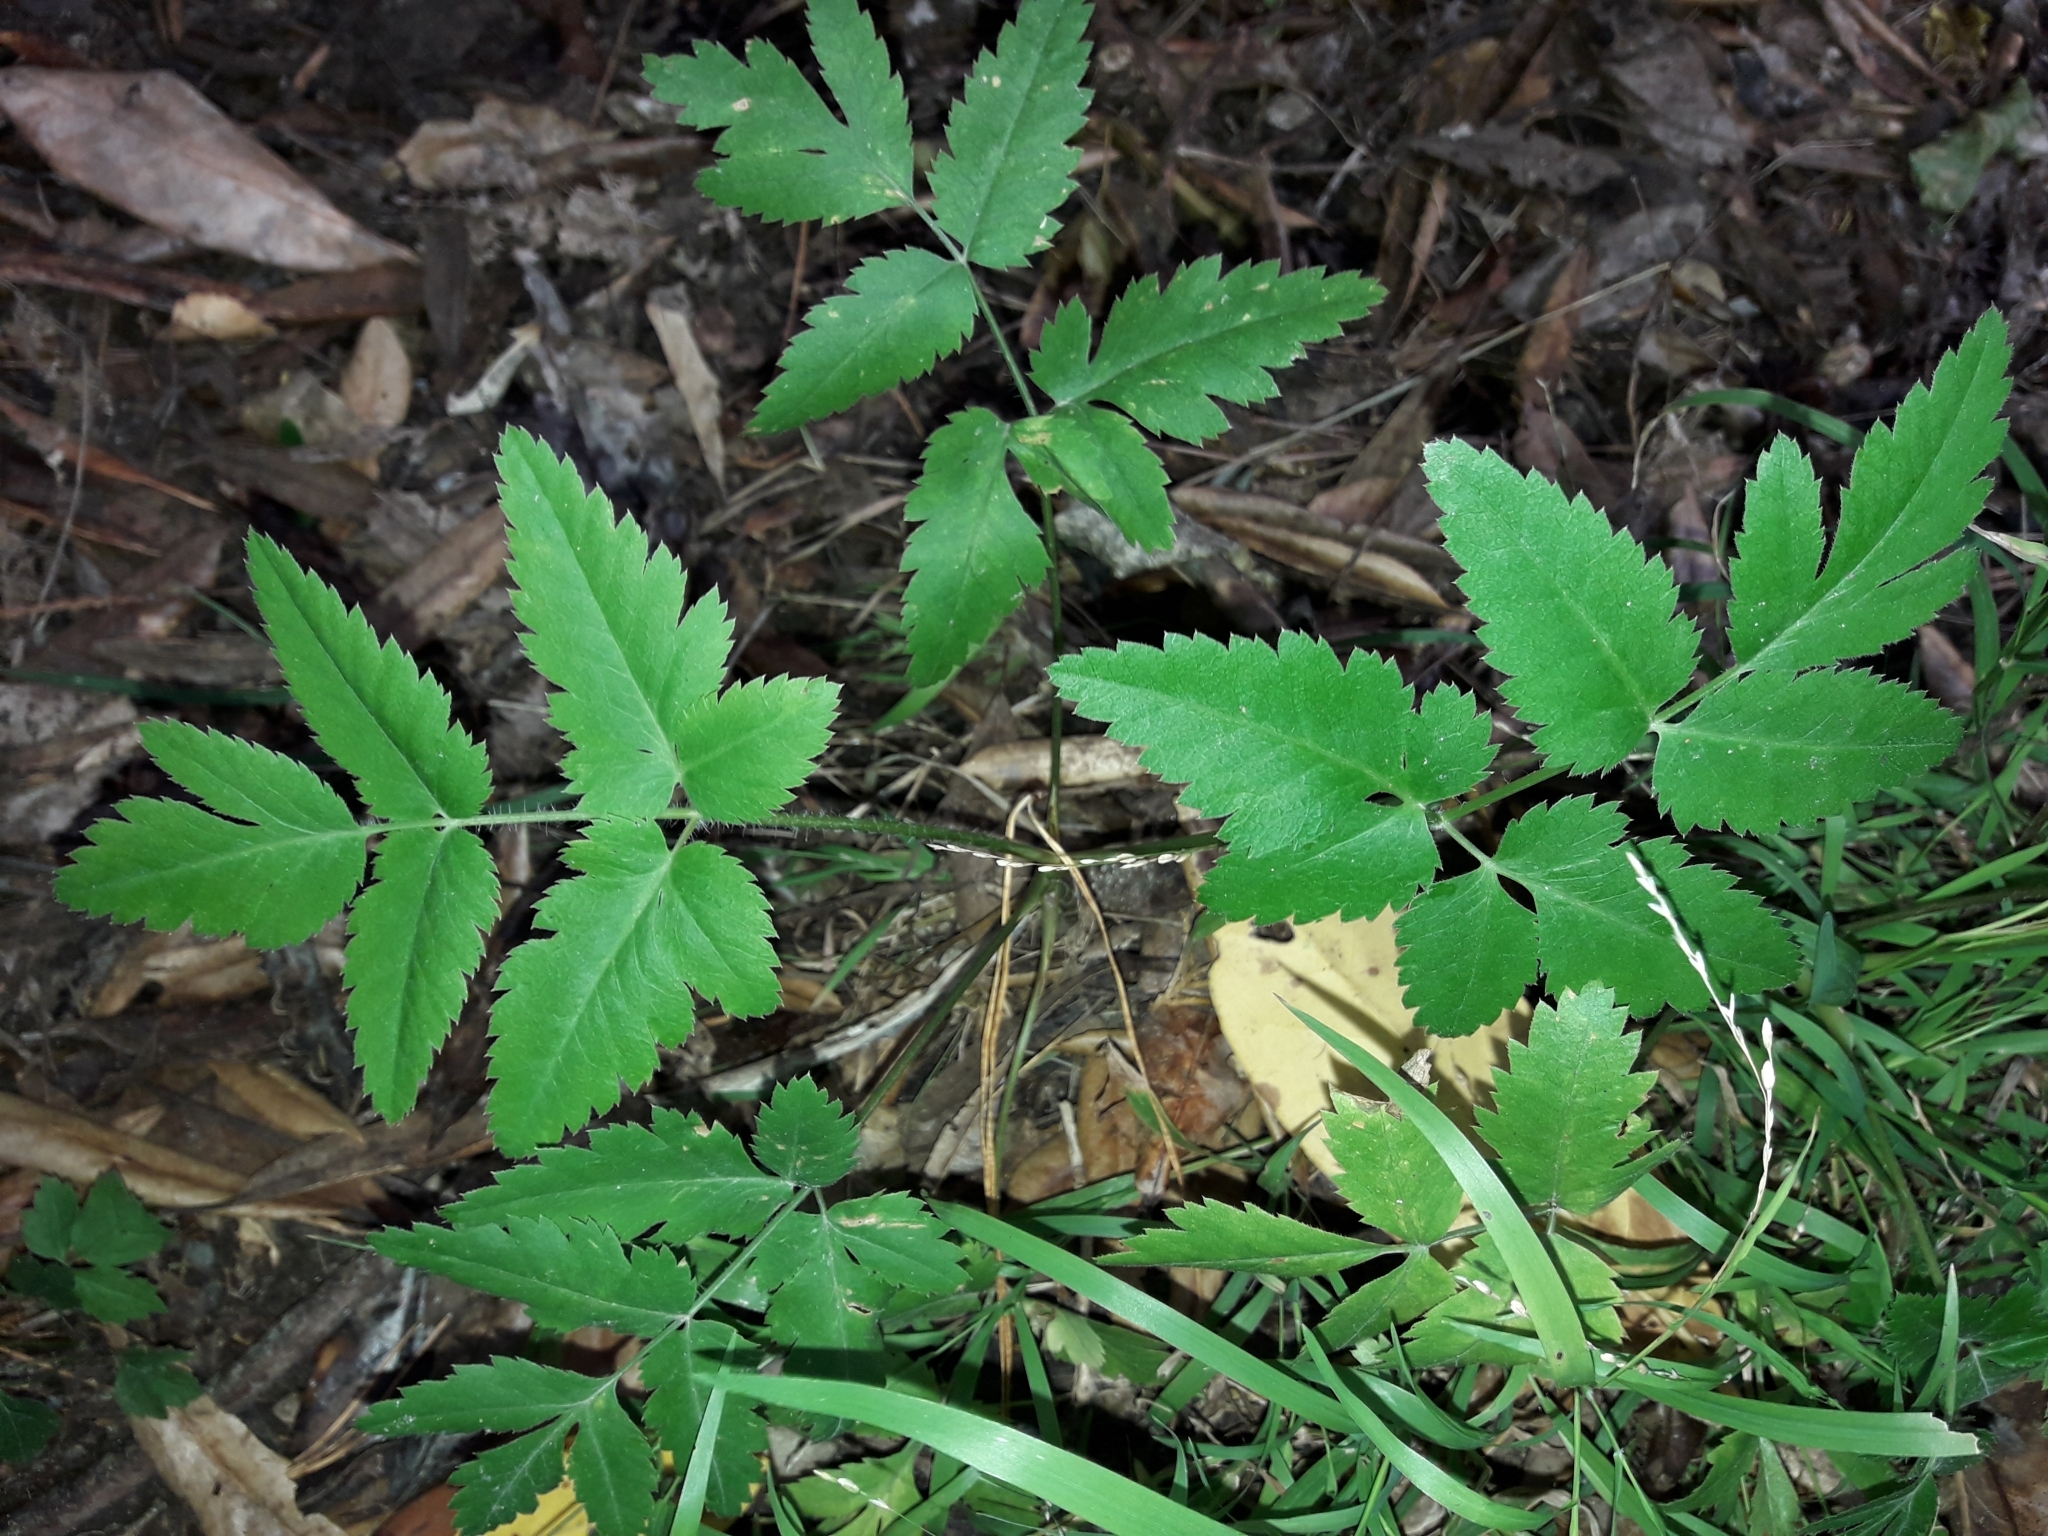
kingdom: Plantae
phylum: Tracheophyta
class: Magnoliopsida
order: Apiales
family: Apiaceae
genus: Daucus
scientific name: Daucus decipiens
